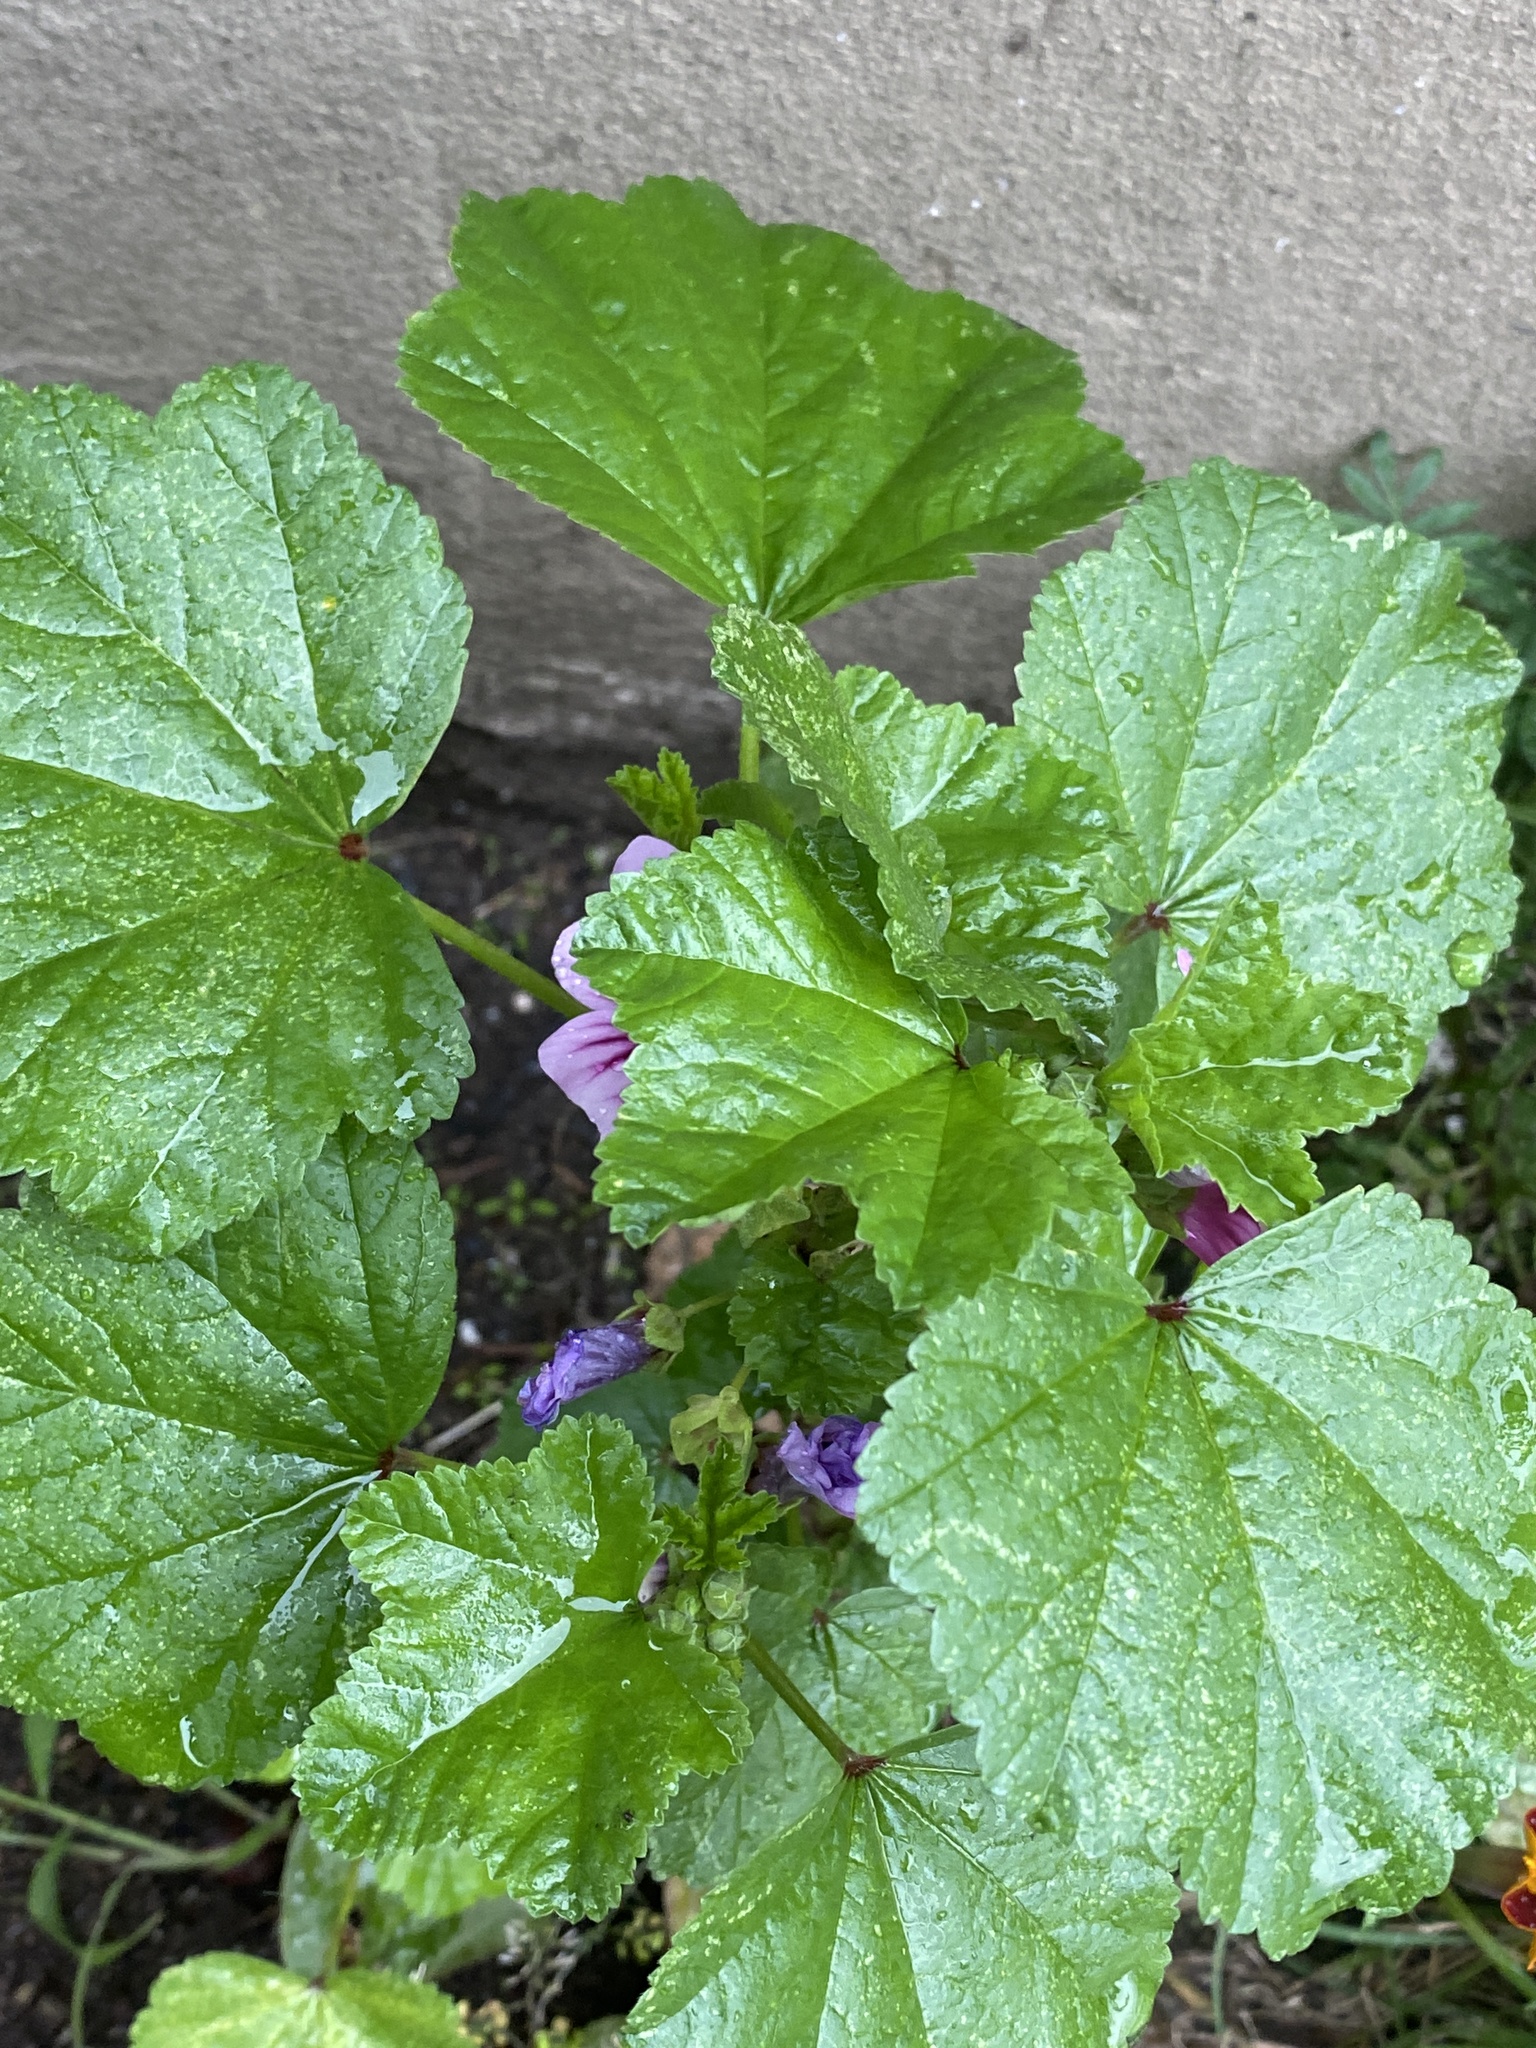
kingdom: Plantae
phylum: Tracheophyta
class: Magnoliopsida
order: Malvales
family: Malvaceae
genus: Malva
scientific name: Malva sylvestris
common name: Common mallow
